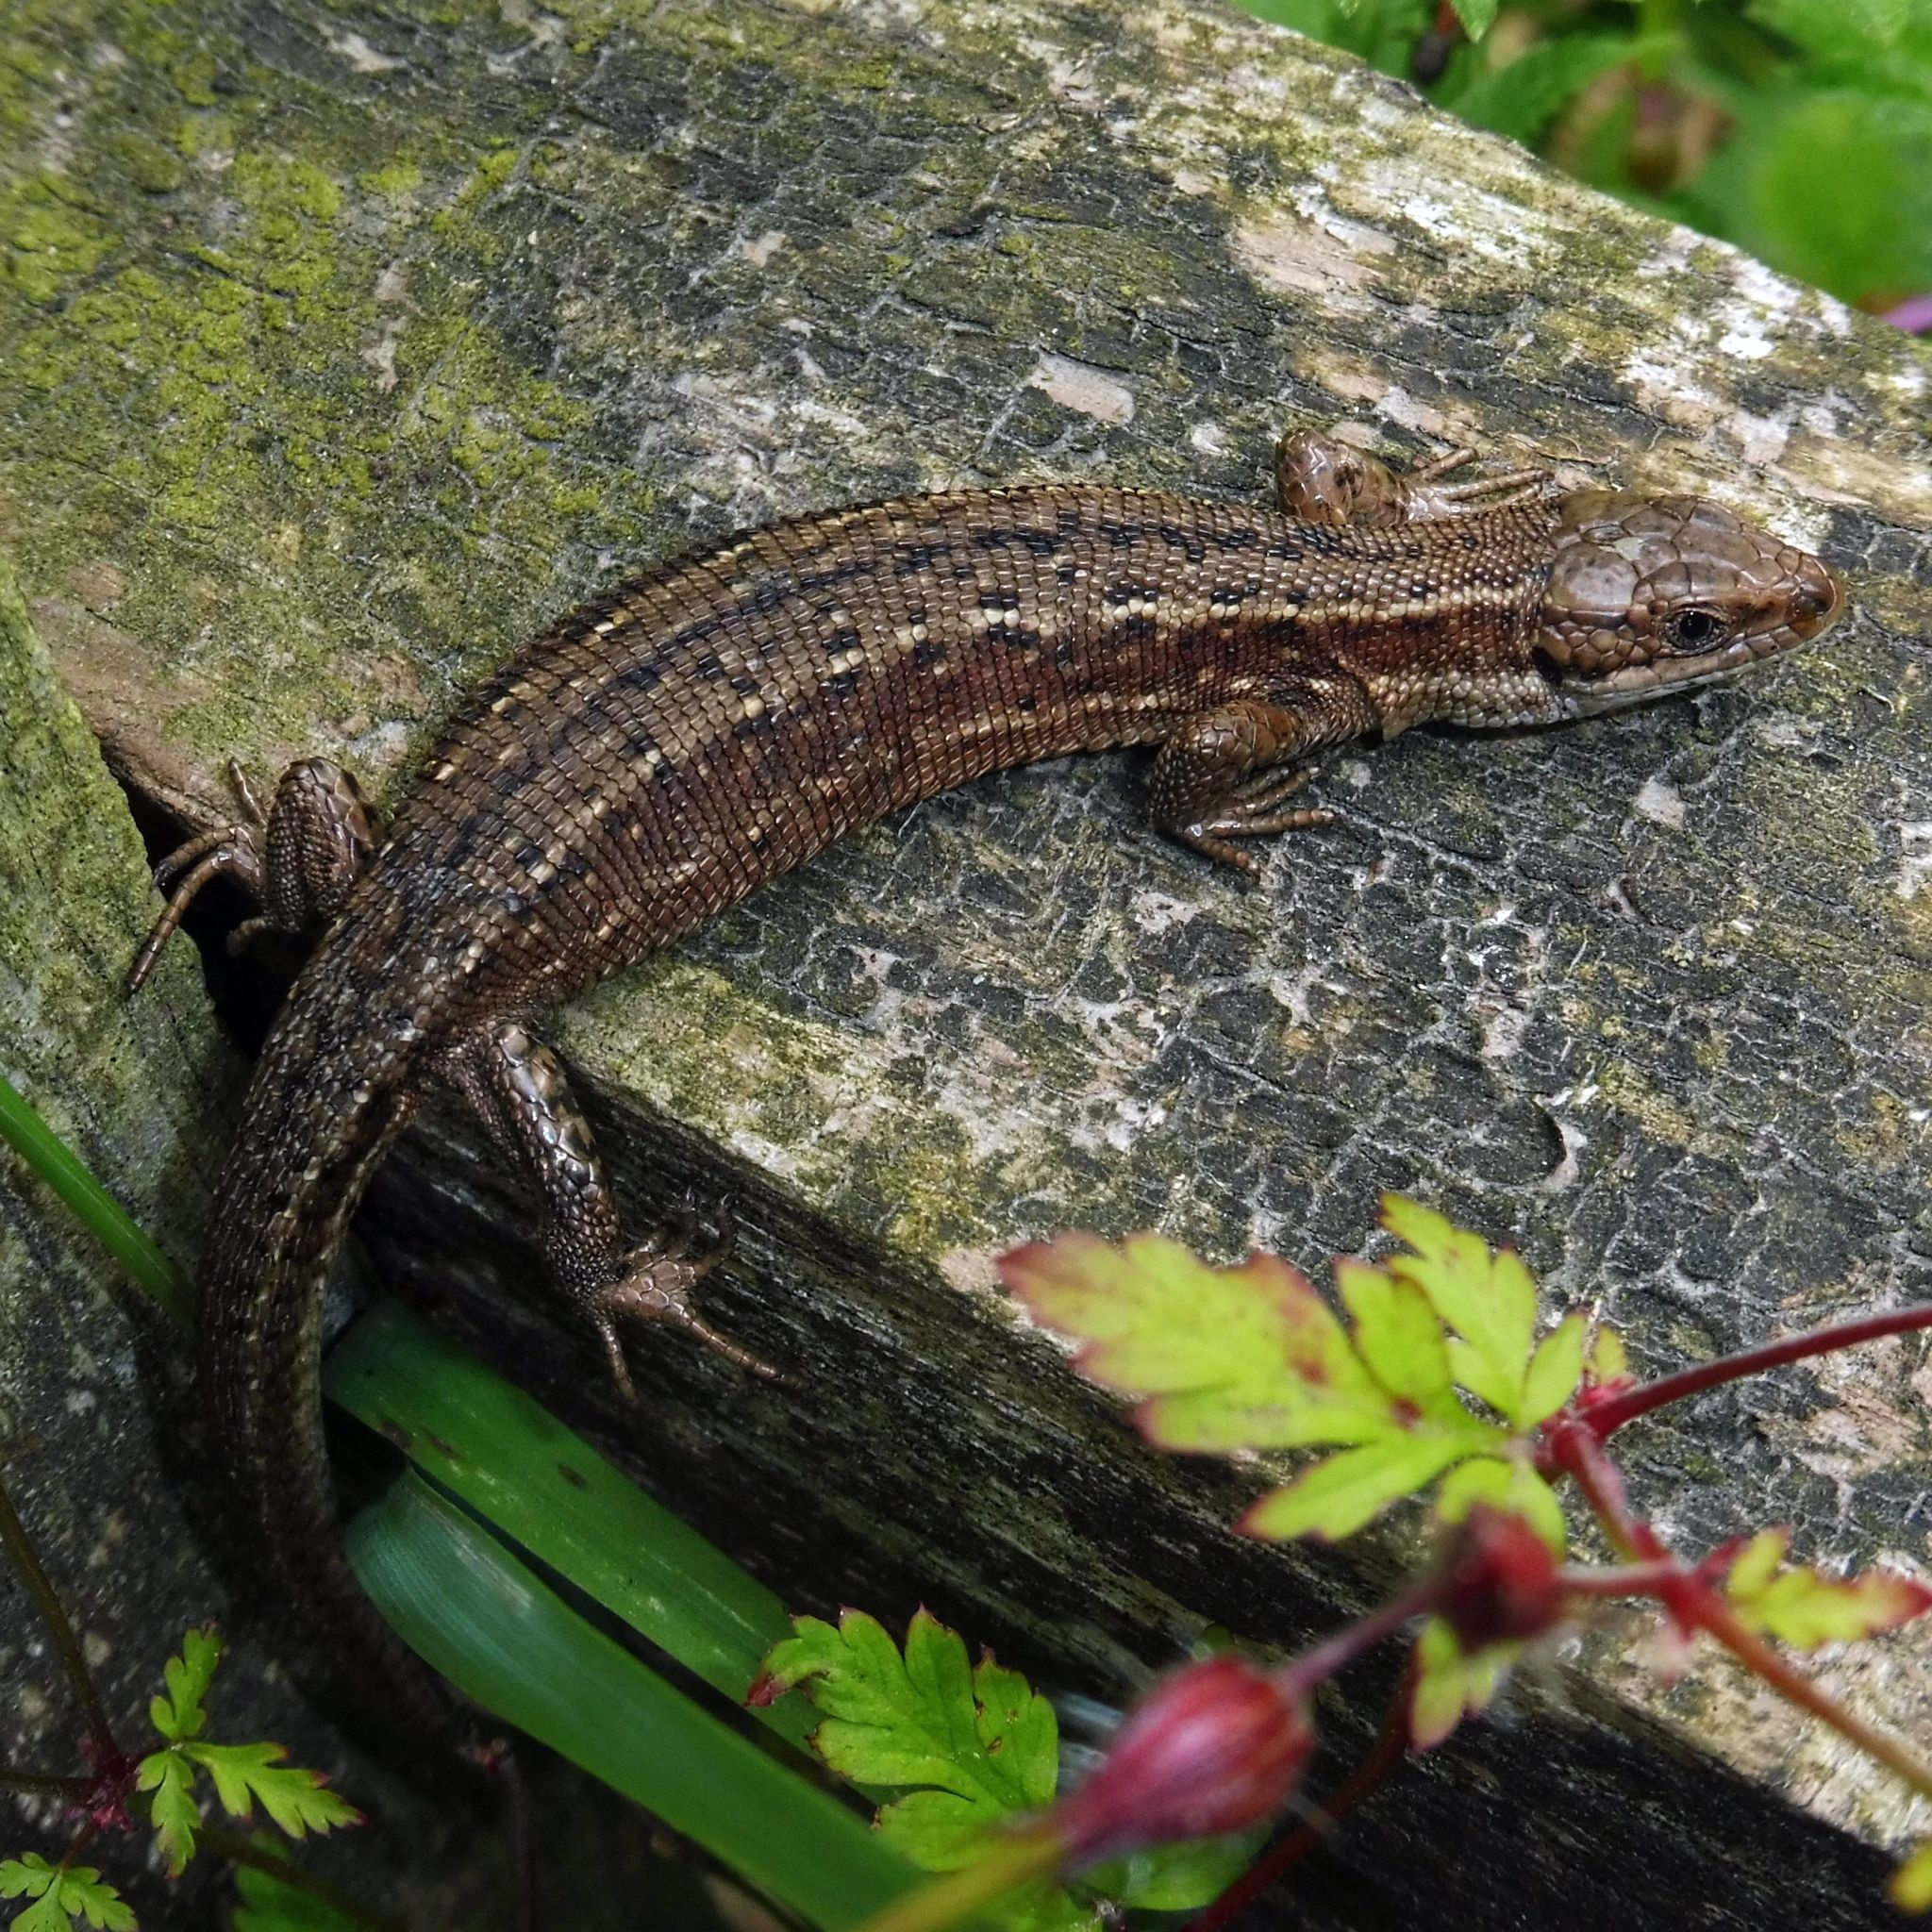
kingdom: Animalia
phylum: Chordata
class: Squamata
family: Lacertidae
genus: Zootoca
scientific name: Zootoca vivipara
